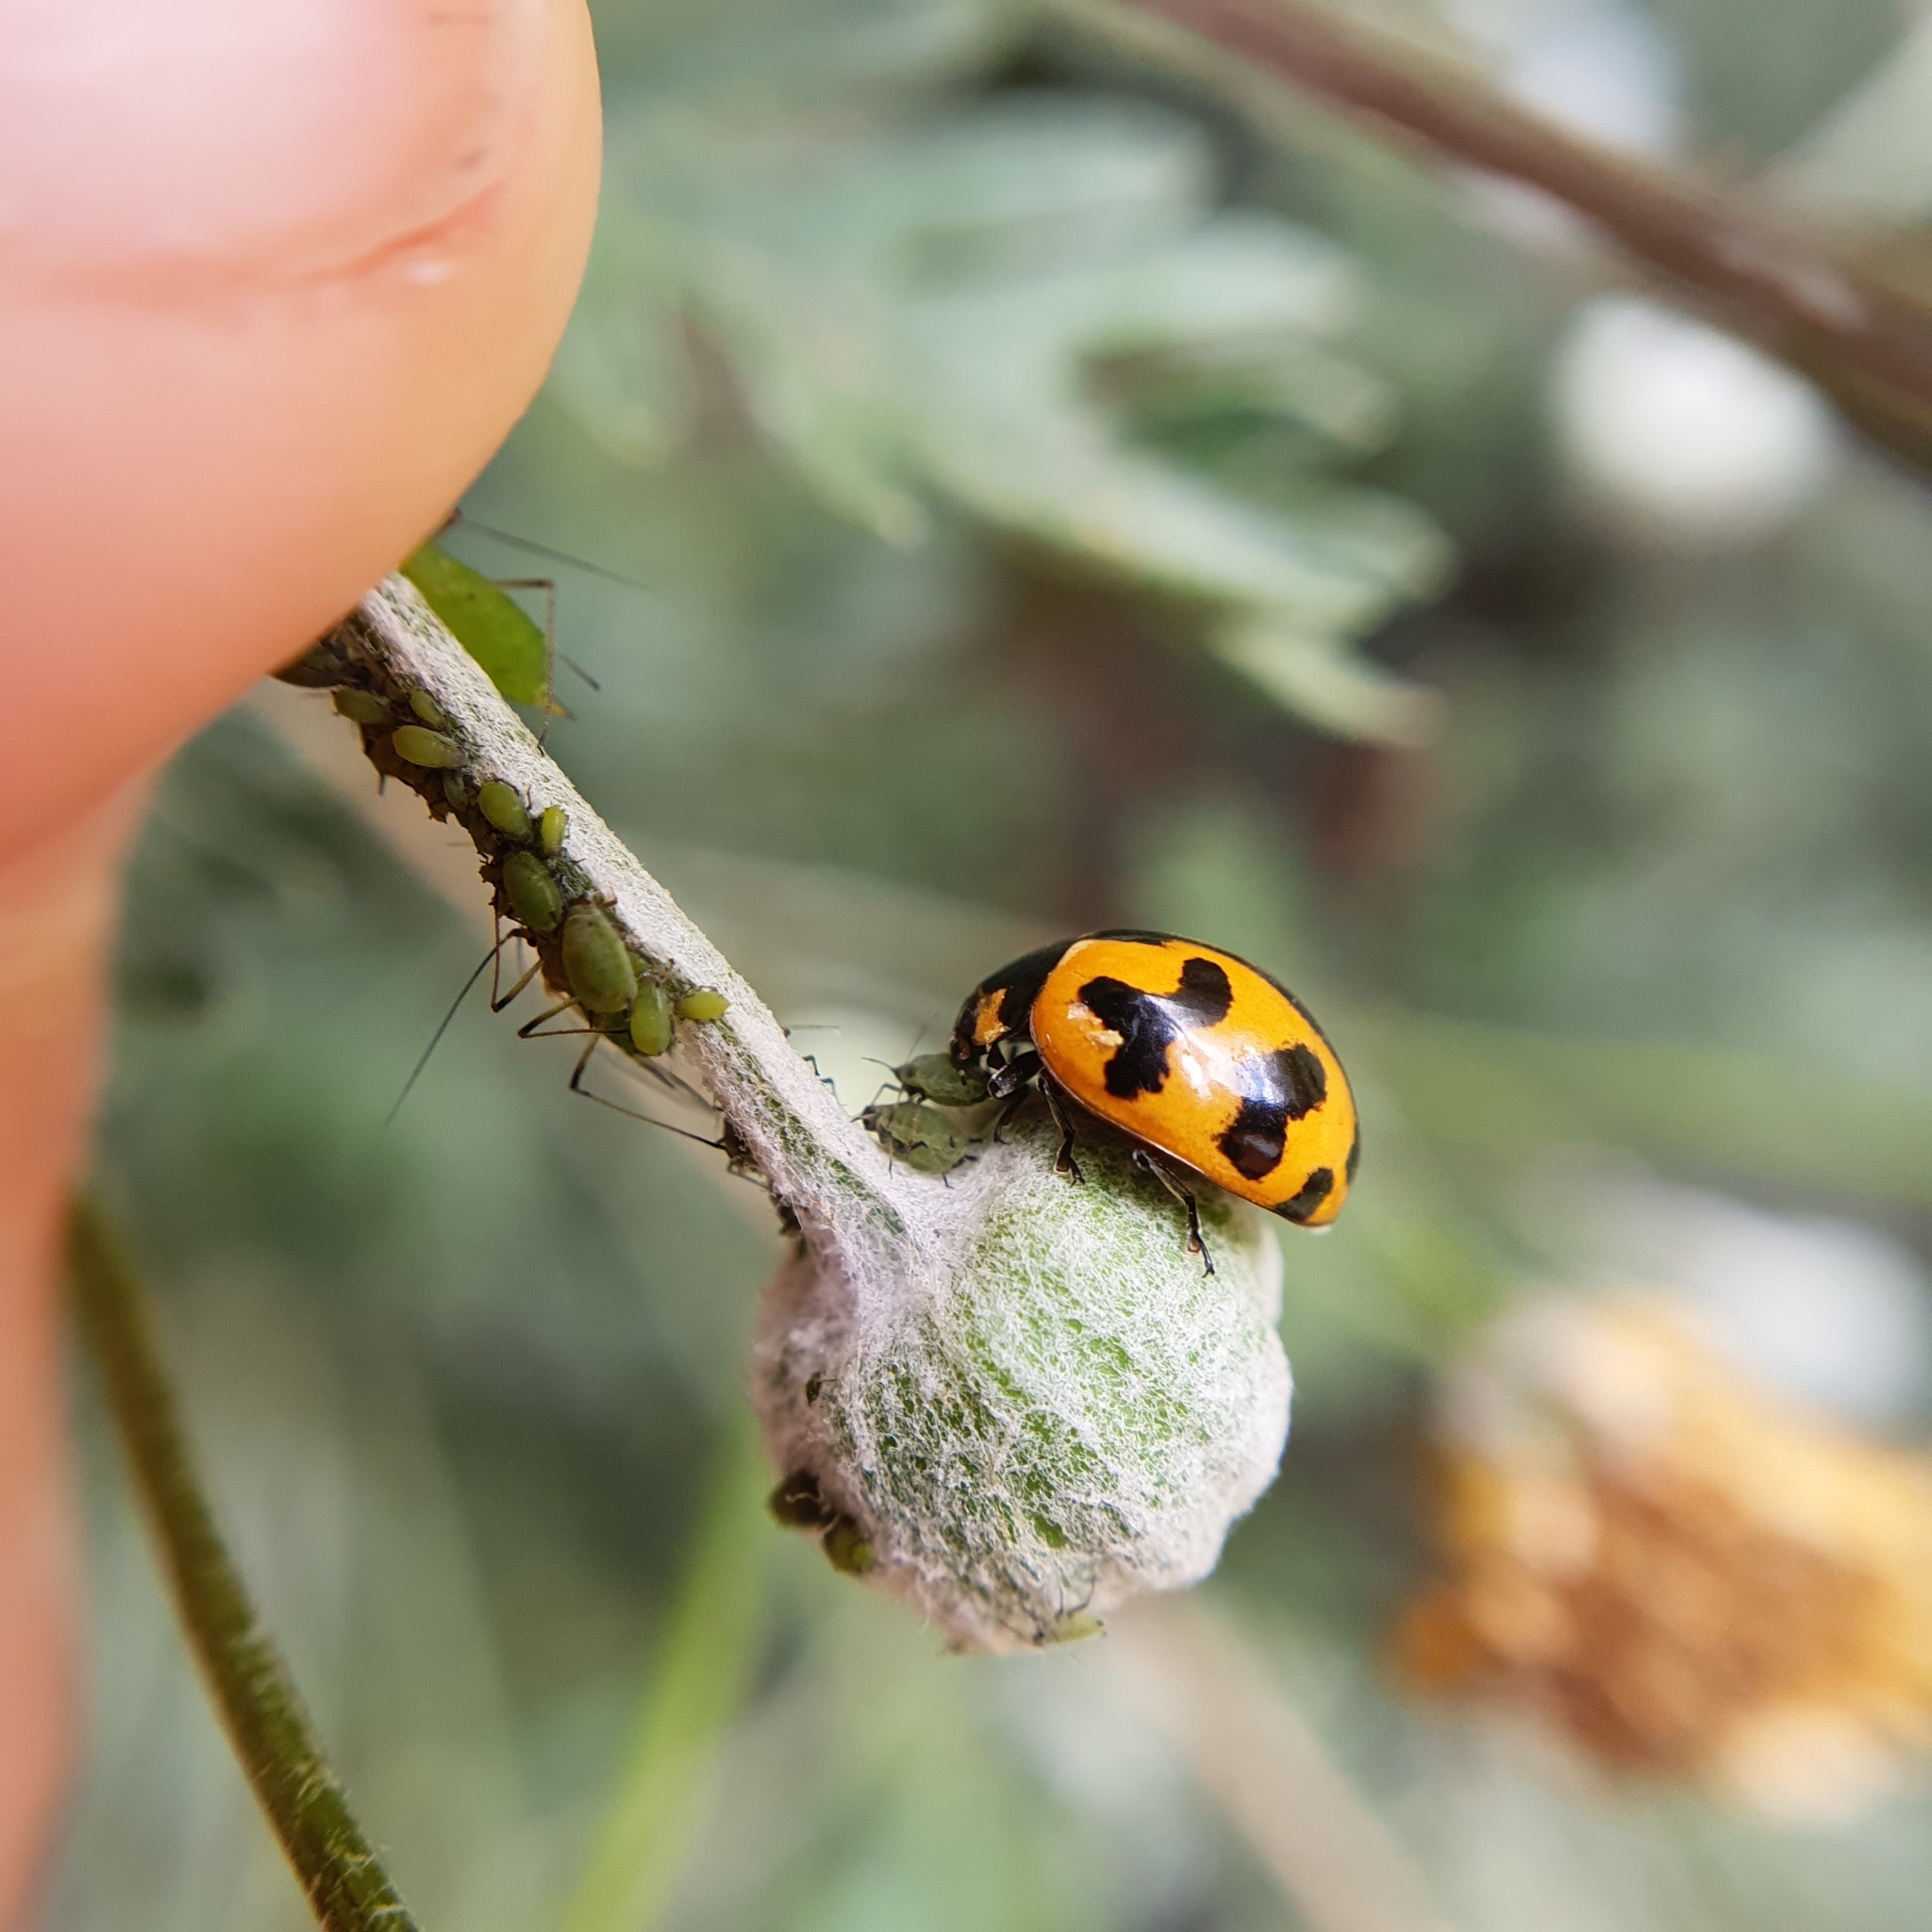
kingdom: Animalia
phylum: Arthropoda
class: Insecta
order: Coleoptera
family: Coccinellidae
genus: Coccinella
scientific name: Coccinella transversalis
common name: Transverse lady beetle
